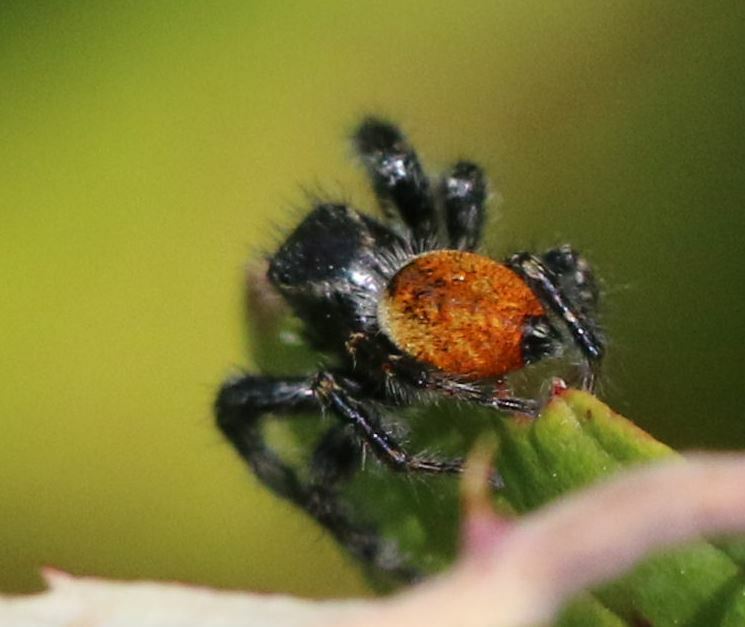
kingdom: Animalia
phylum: Arthropoda
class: Arachnida
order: Araneae
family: Salticidae
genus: Carrhotus
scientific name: Carrhotus xanthogramma
